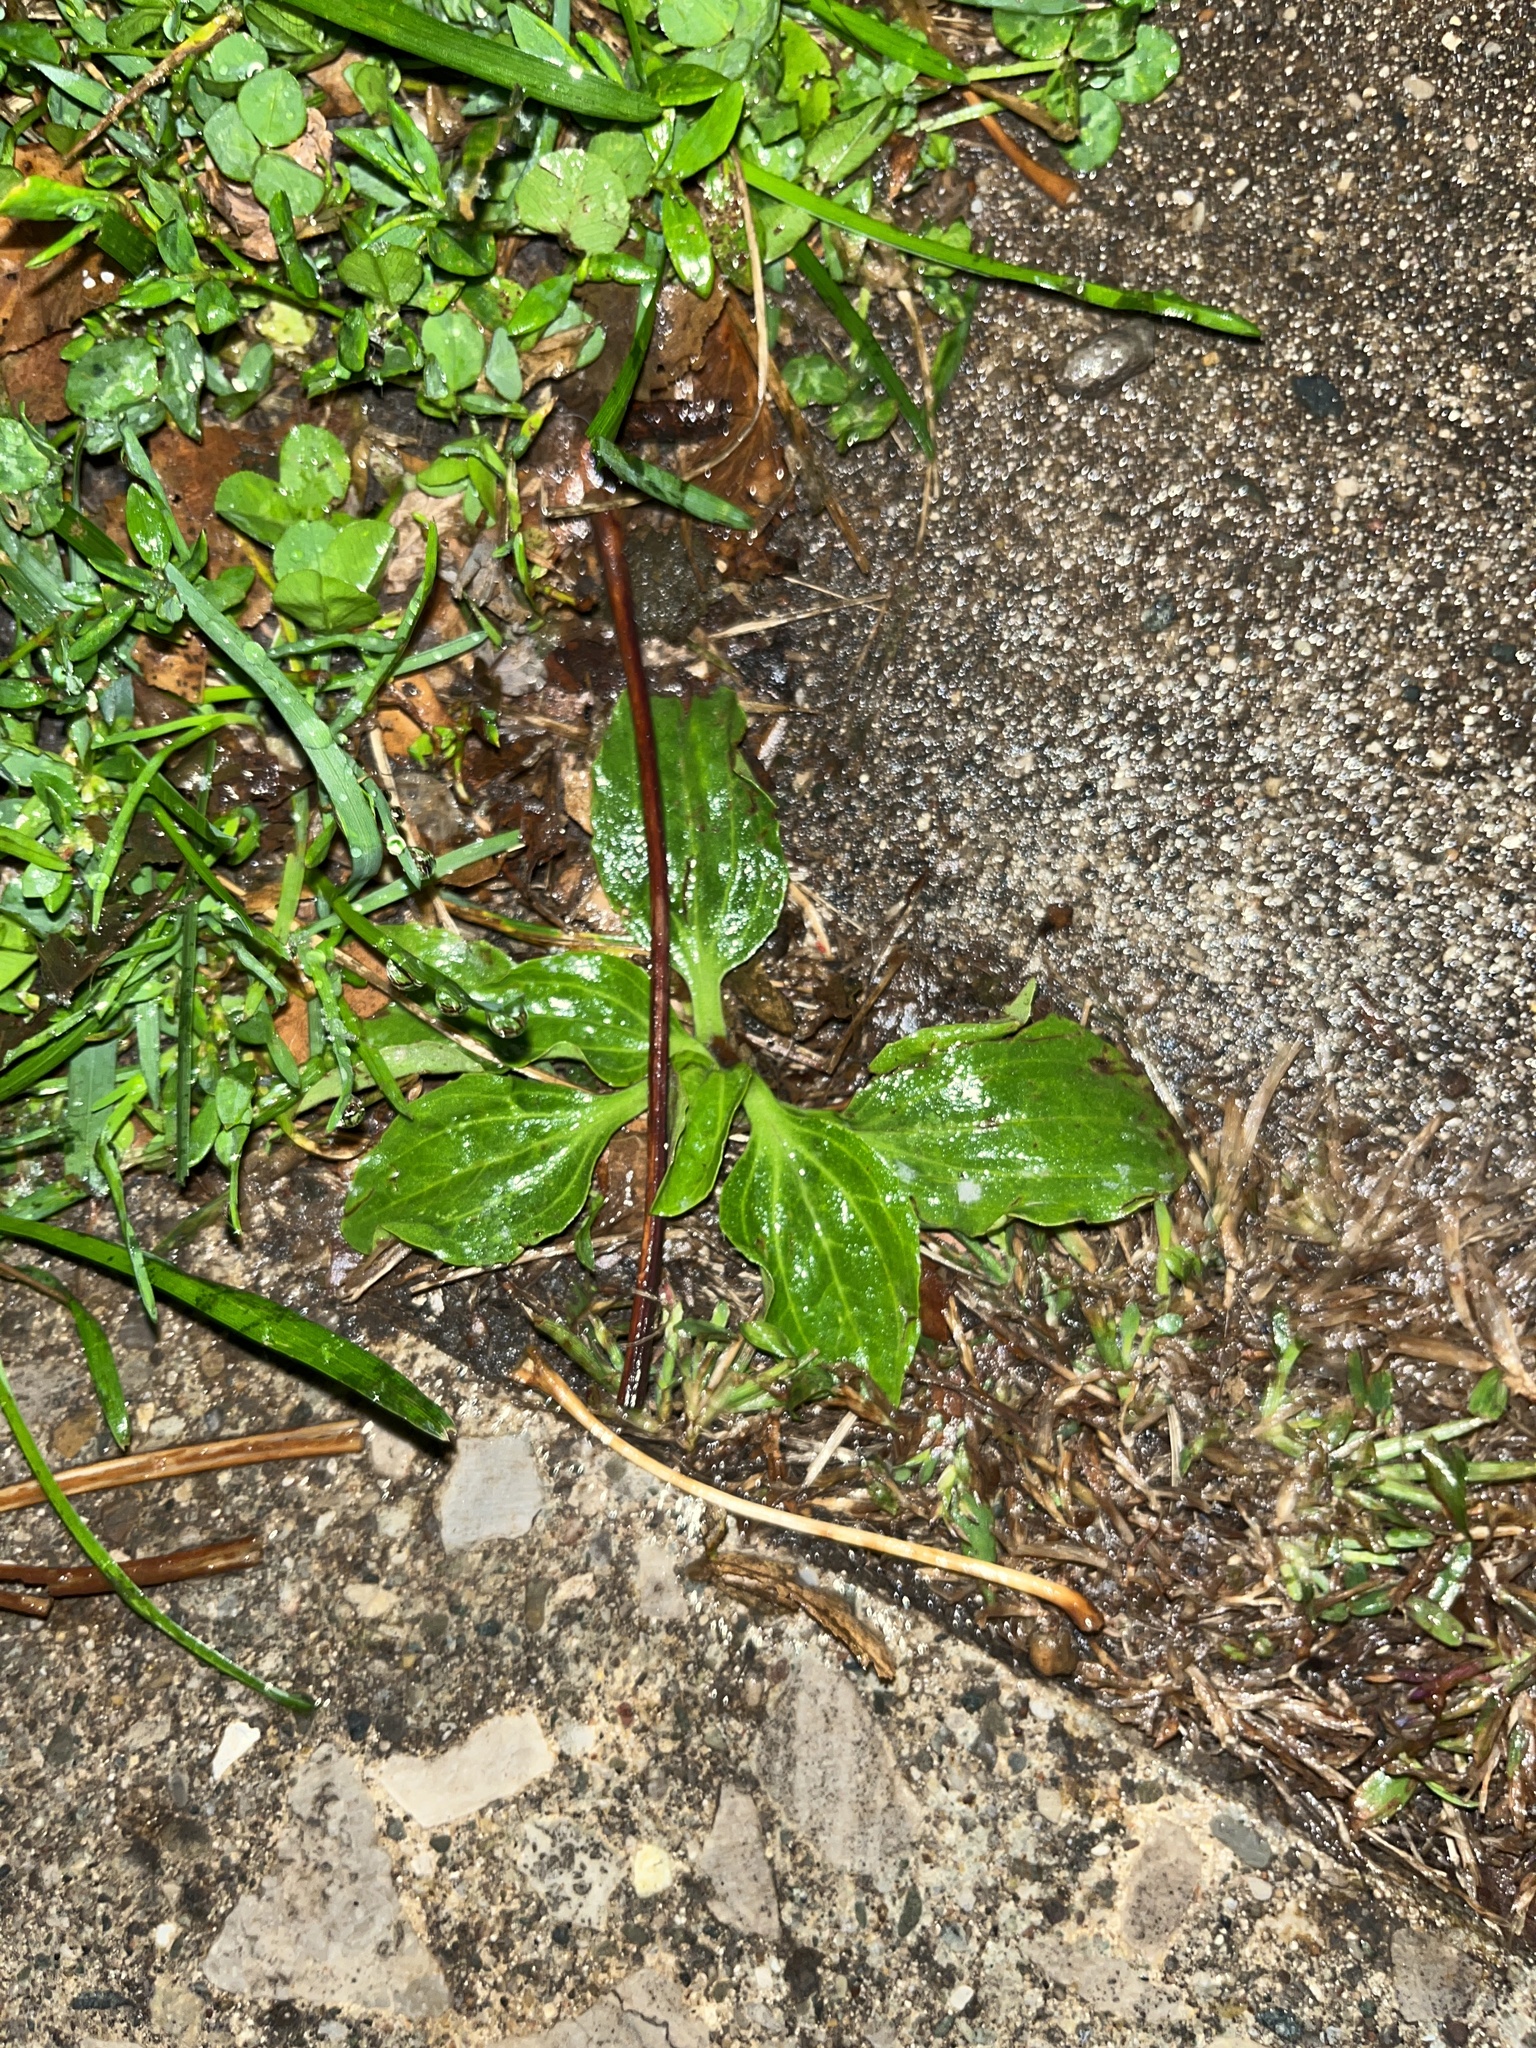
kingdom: Plantae
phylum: Tracheophyta
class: Magnoliopsida
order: Lamiales
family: Plantaginaceae
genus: Plantago
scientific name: Plantago major
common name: Common plantain
